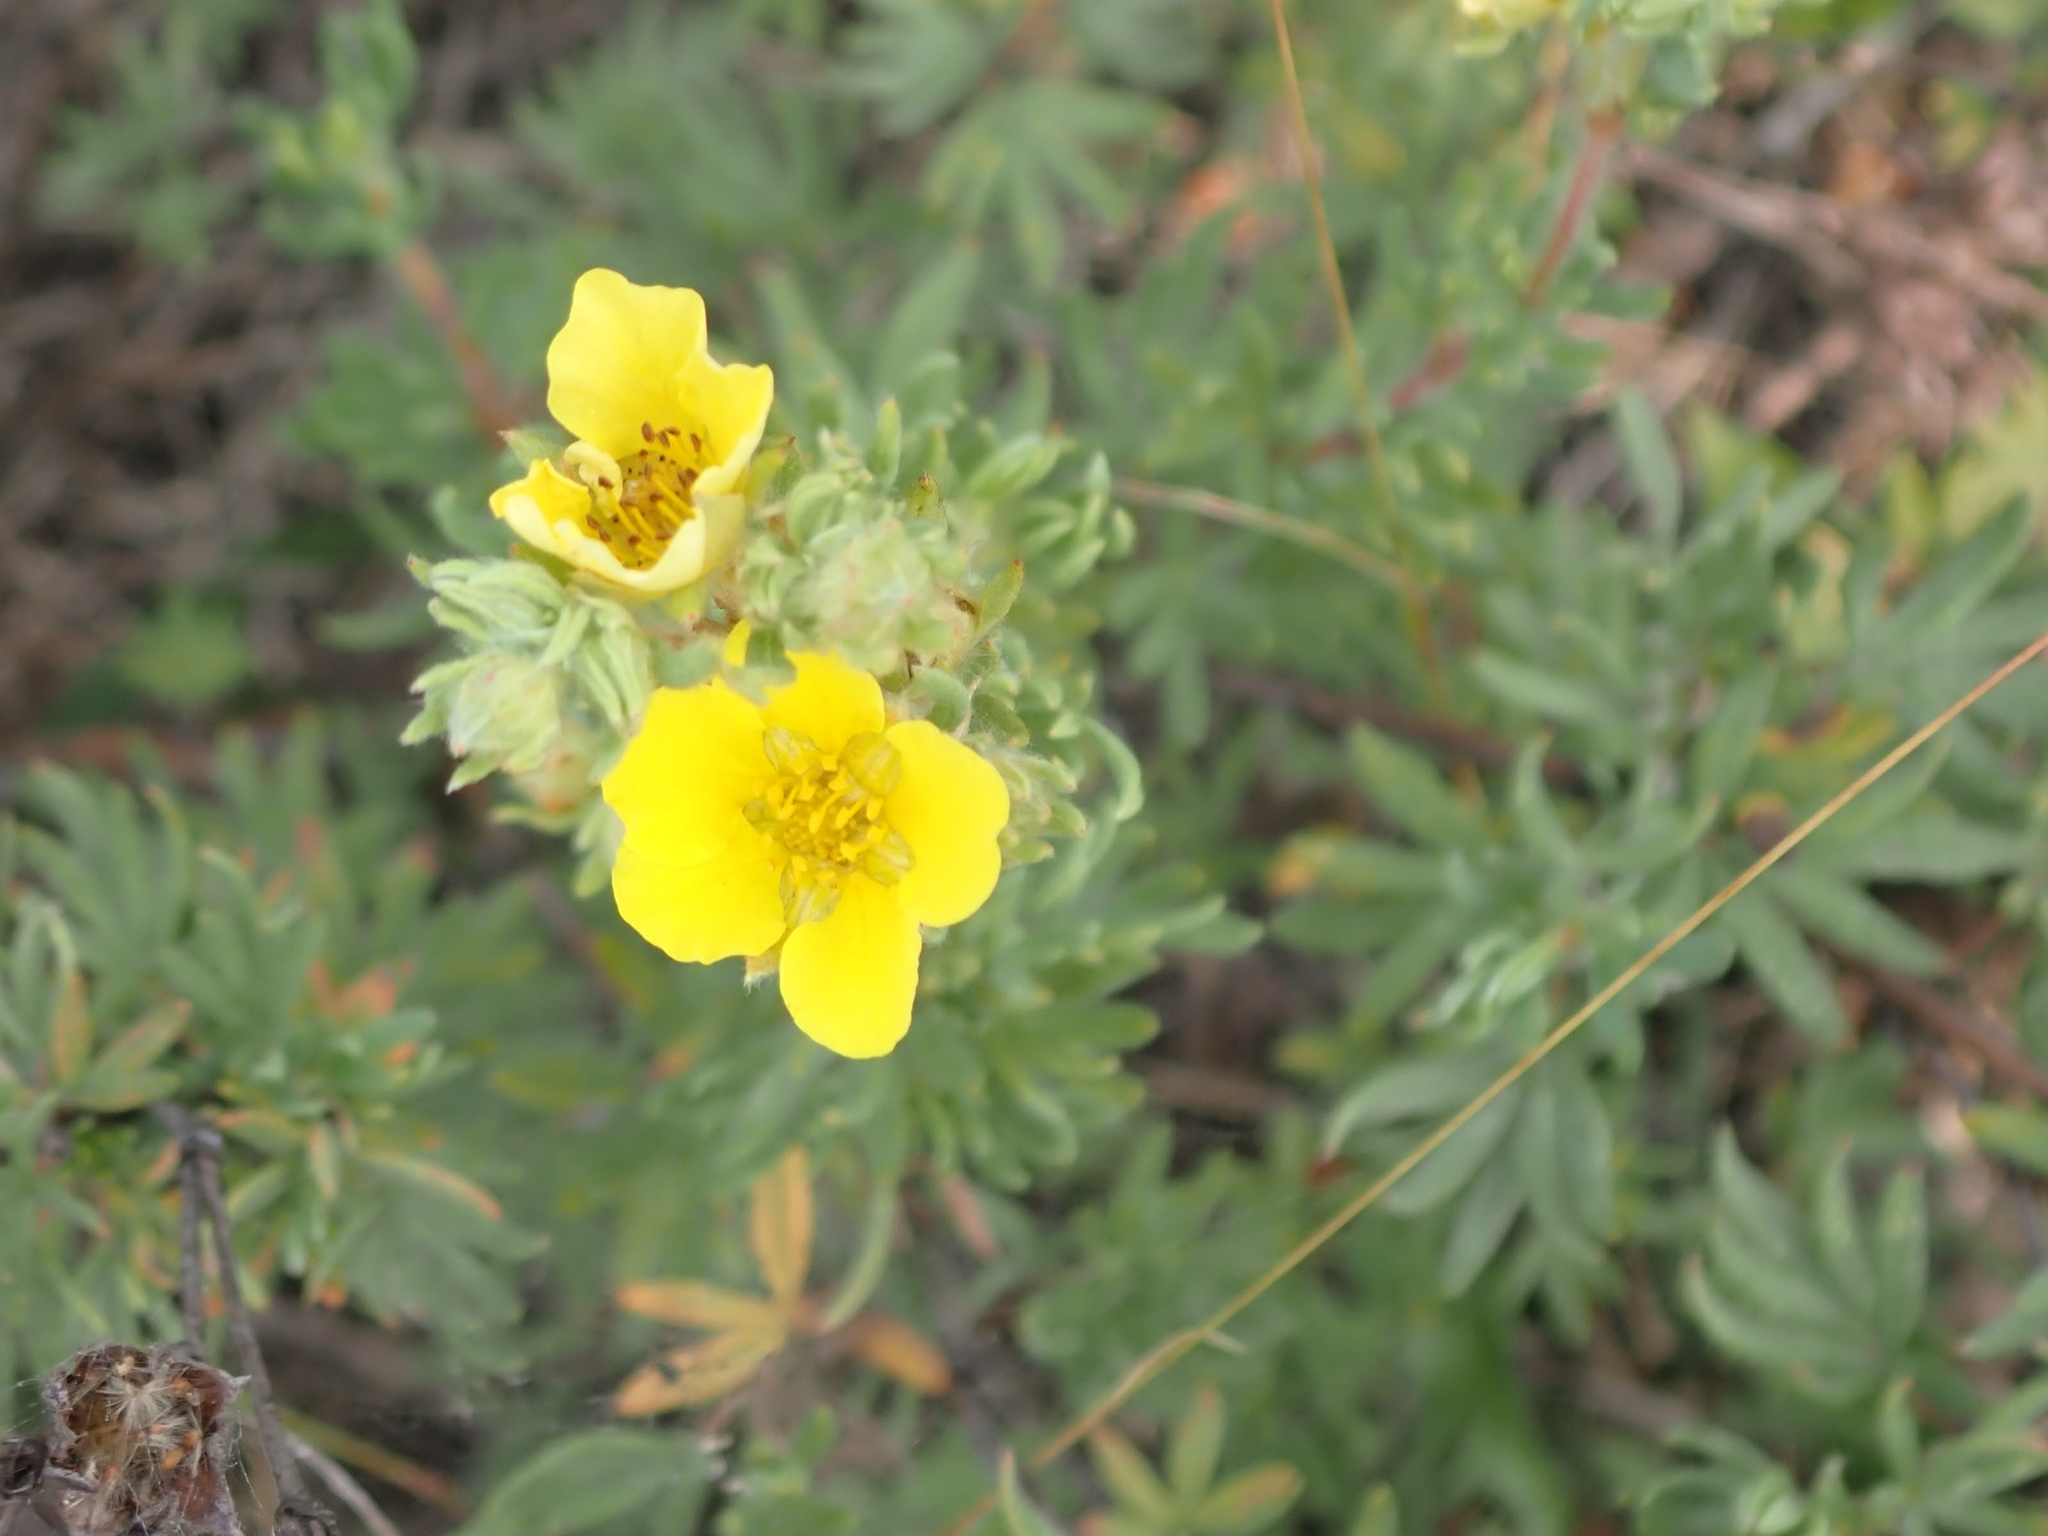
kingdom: Plantae
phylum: Tracheophyta
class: Magnoliopsida
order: Rosales
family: Rosaceae
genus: Dasiphora
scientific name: Dasiphora fruticosa
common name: Shrubby cinquefoil
